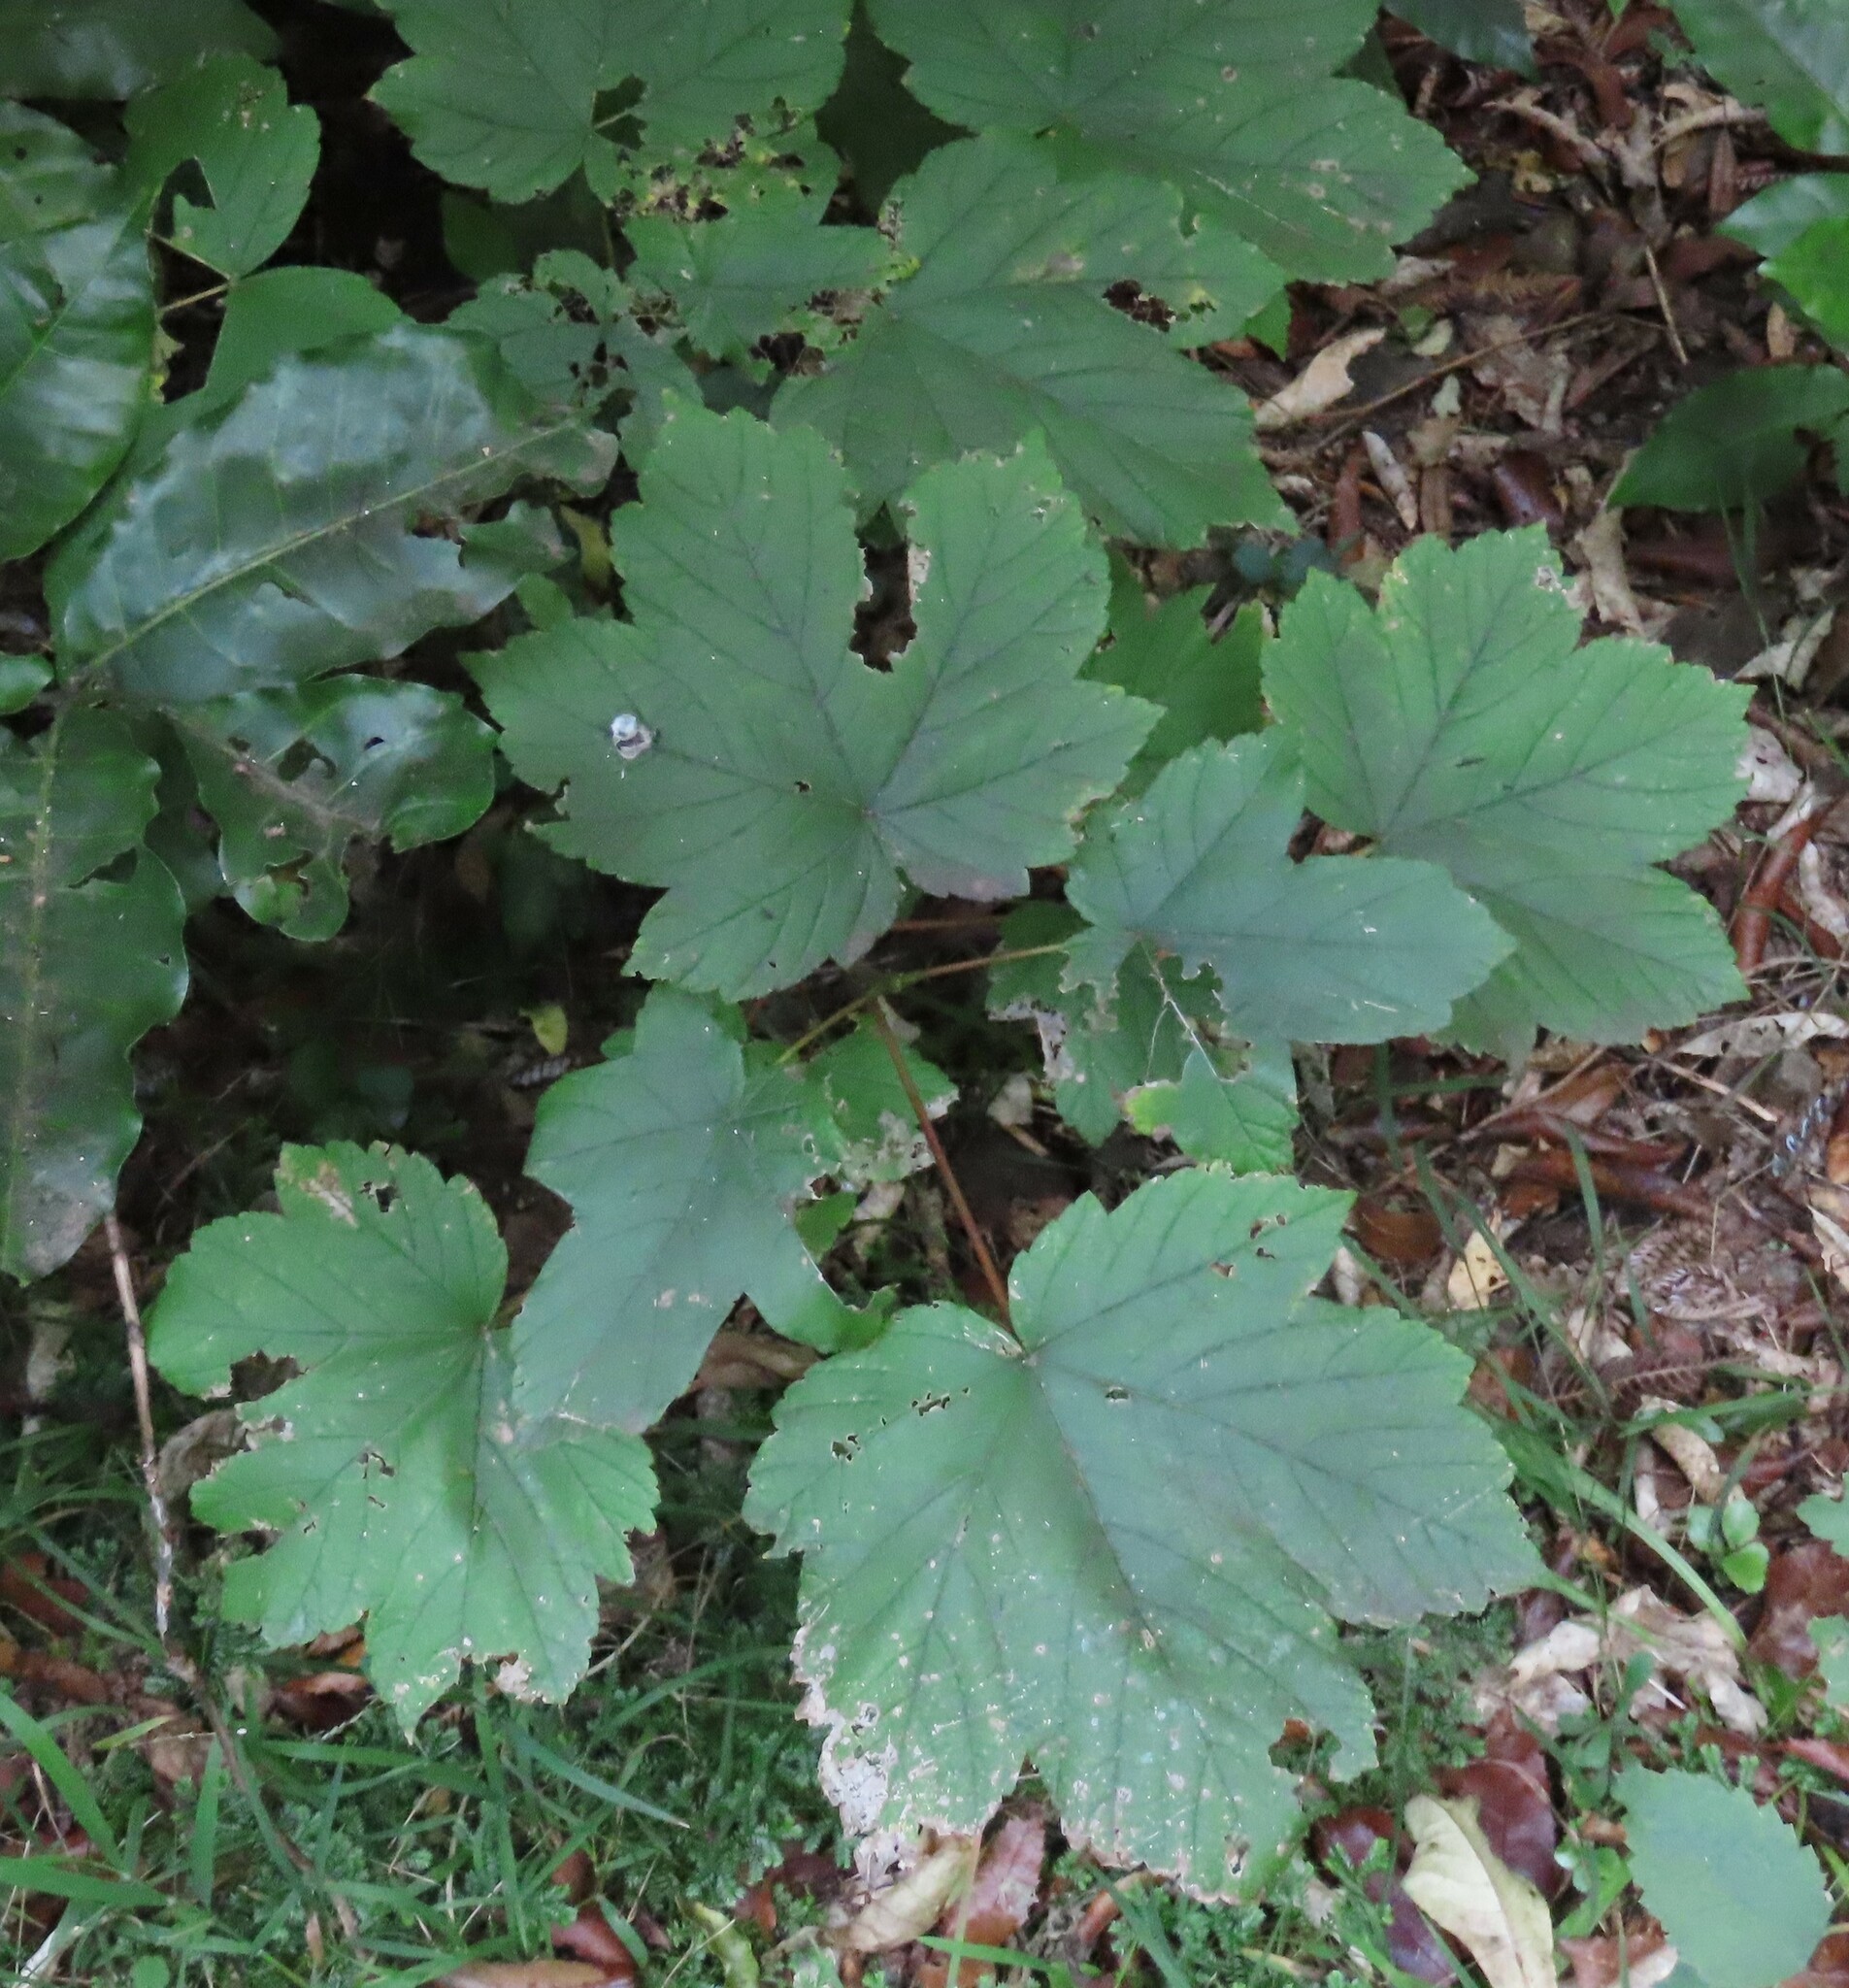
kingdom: Plantae
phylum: Tracheophyta
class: Magnoliopsida
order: Sapindales
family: Sapindaceae
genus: Acer
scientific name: Acer pseudoplatanus
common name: Sycamore
